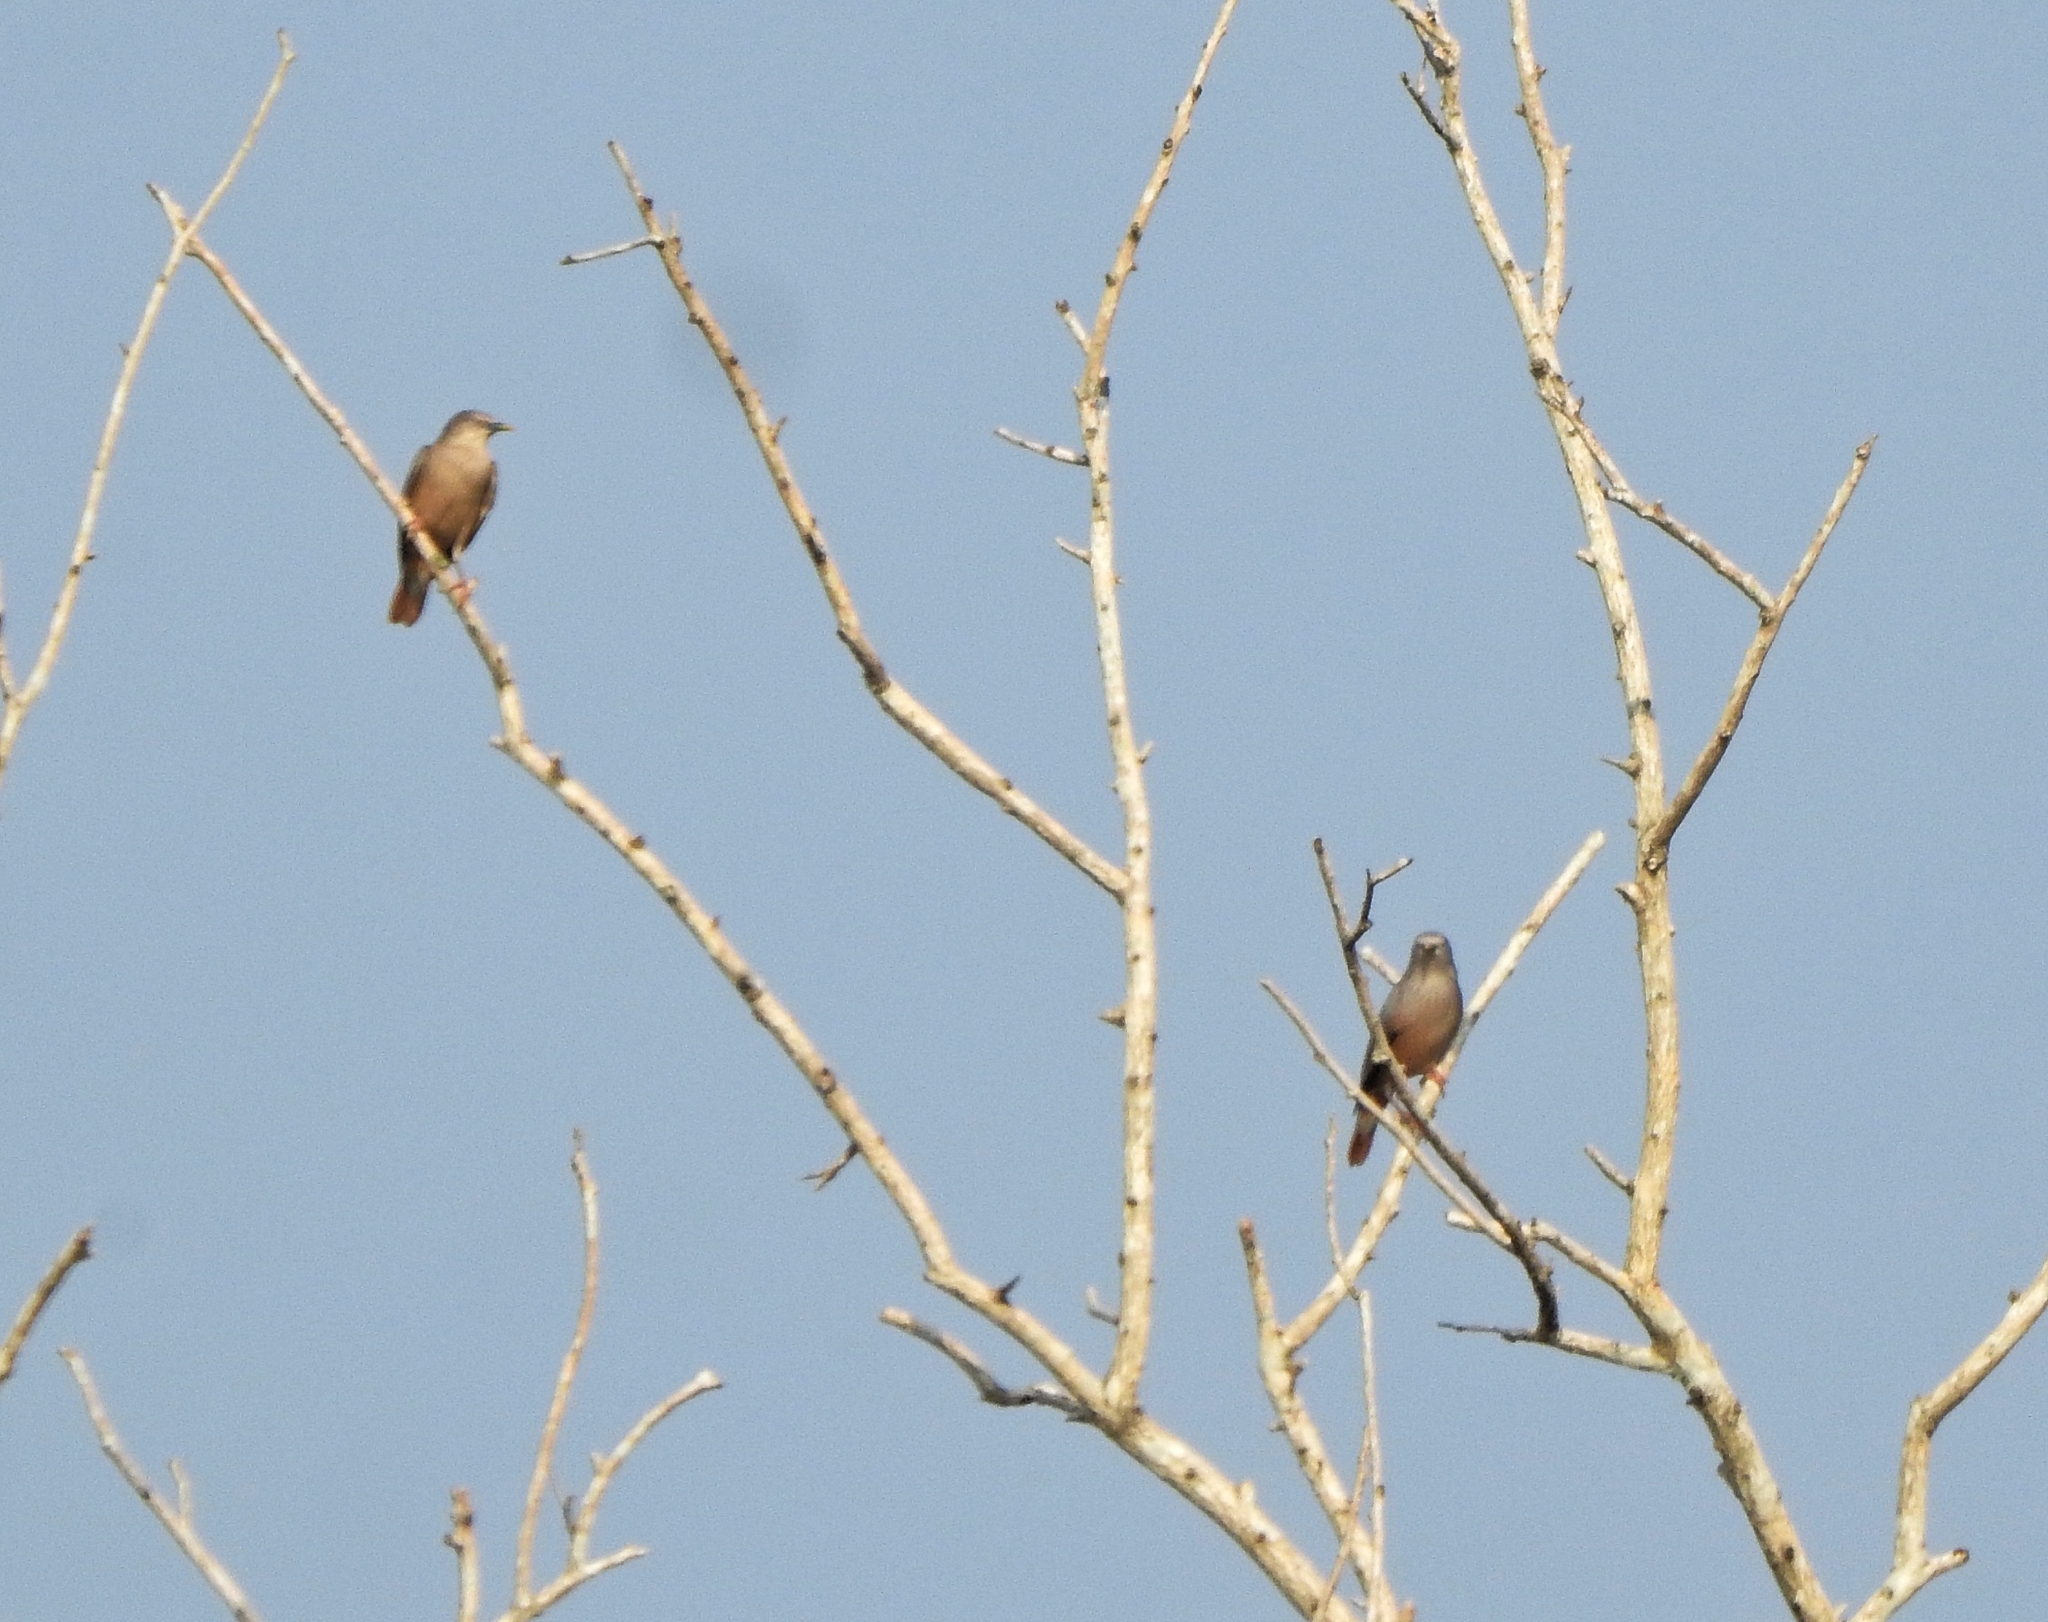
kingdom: Animalia
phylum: Chordata
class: Aves
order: Passeriformes
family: Sturnidae
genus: Sturnia
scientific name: Sturnia malabarica
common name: Chestnut-tailed starling
